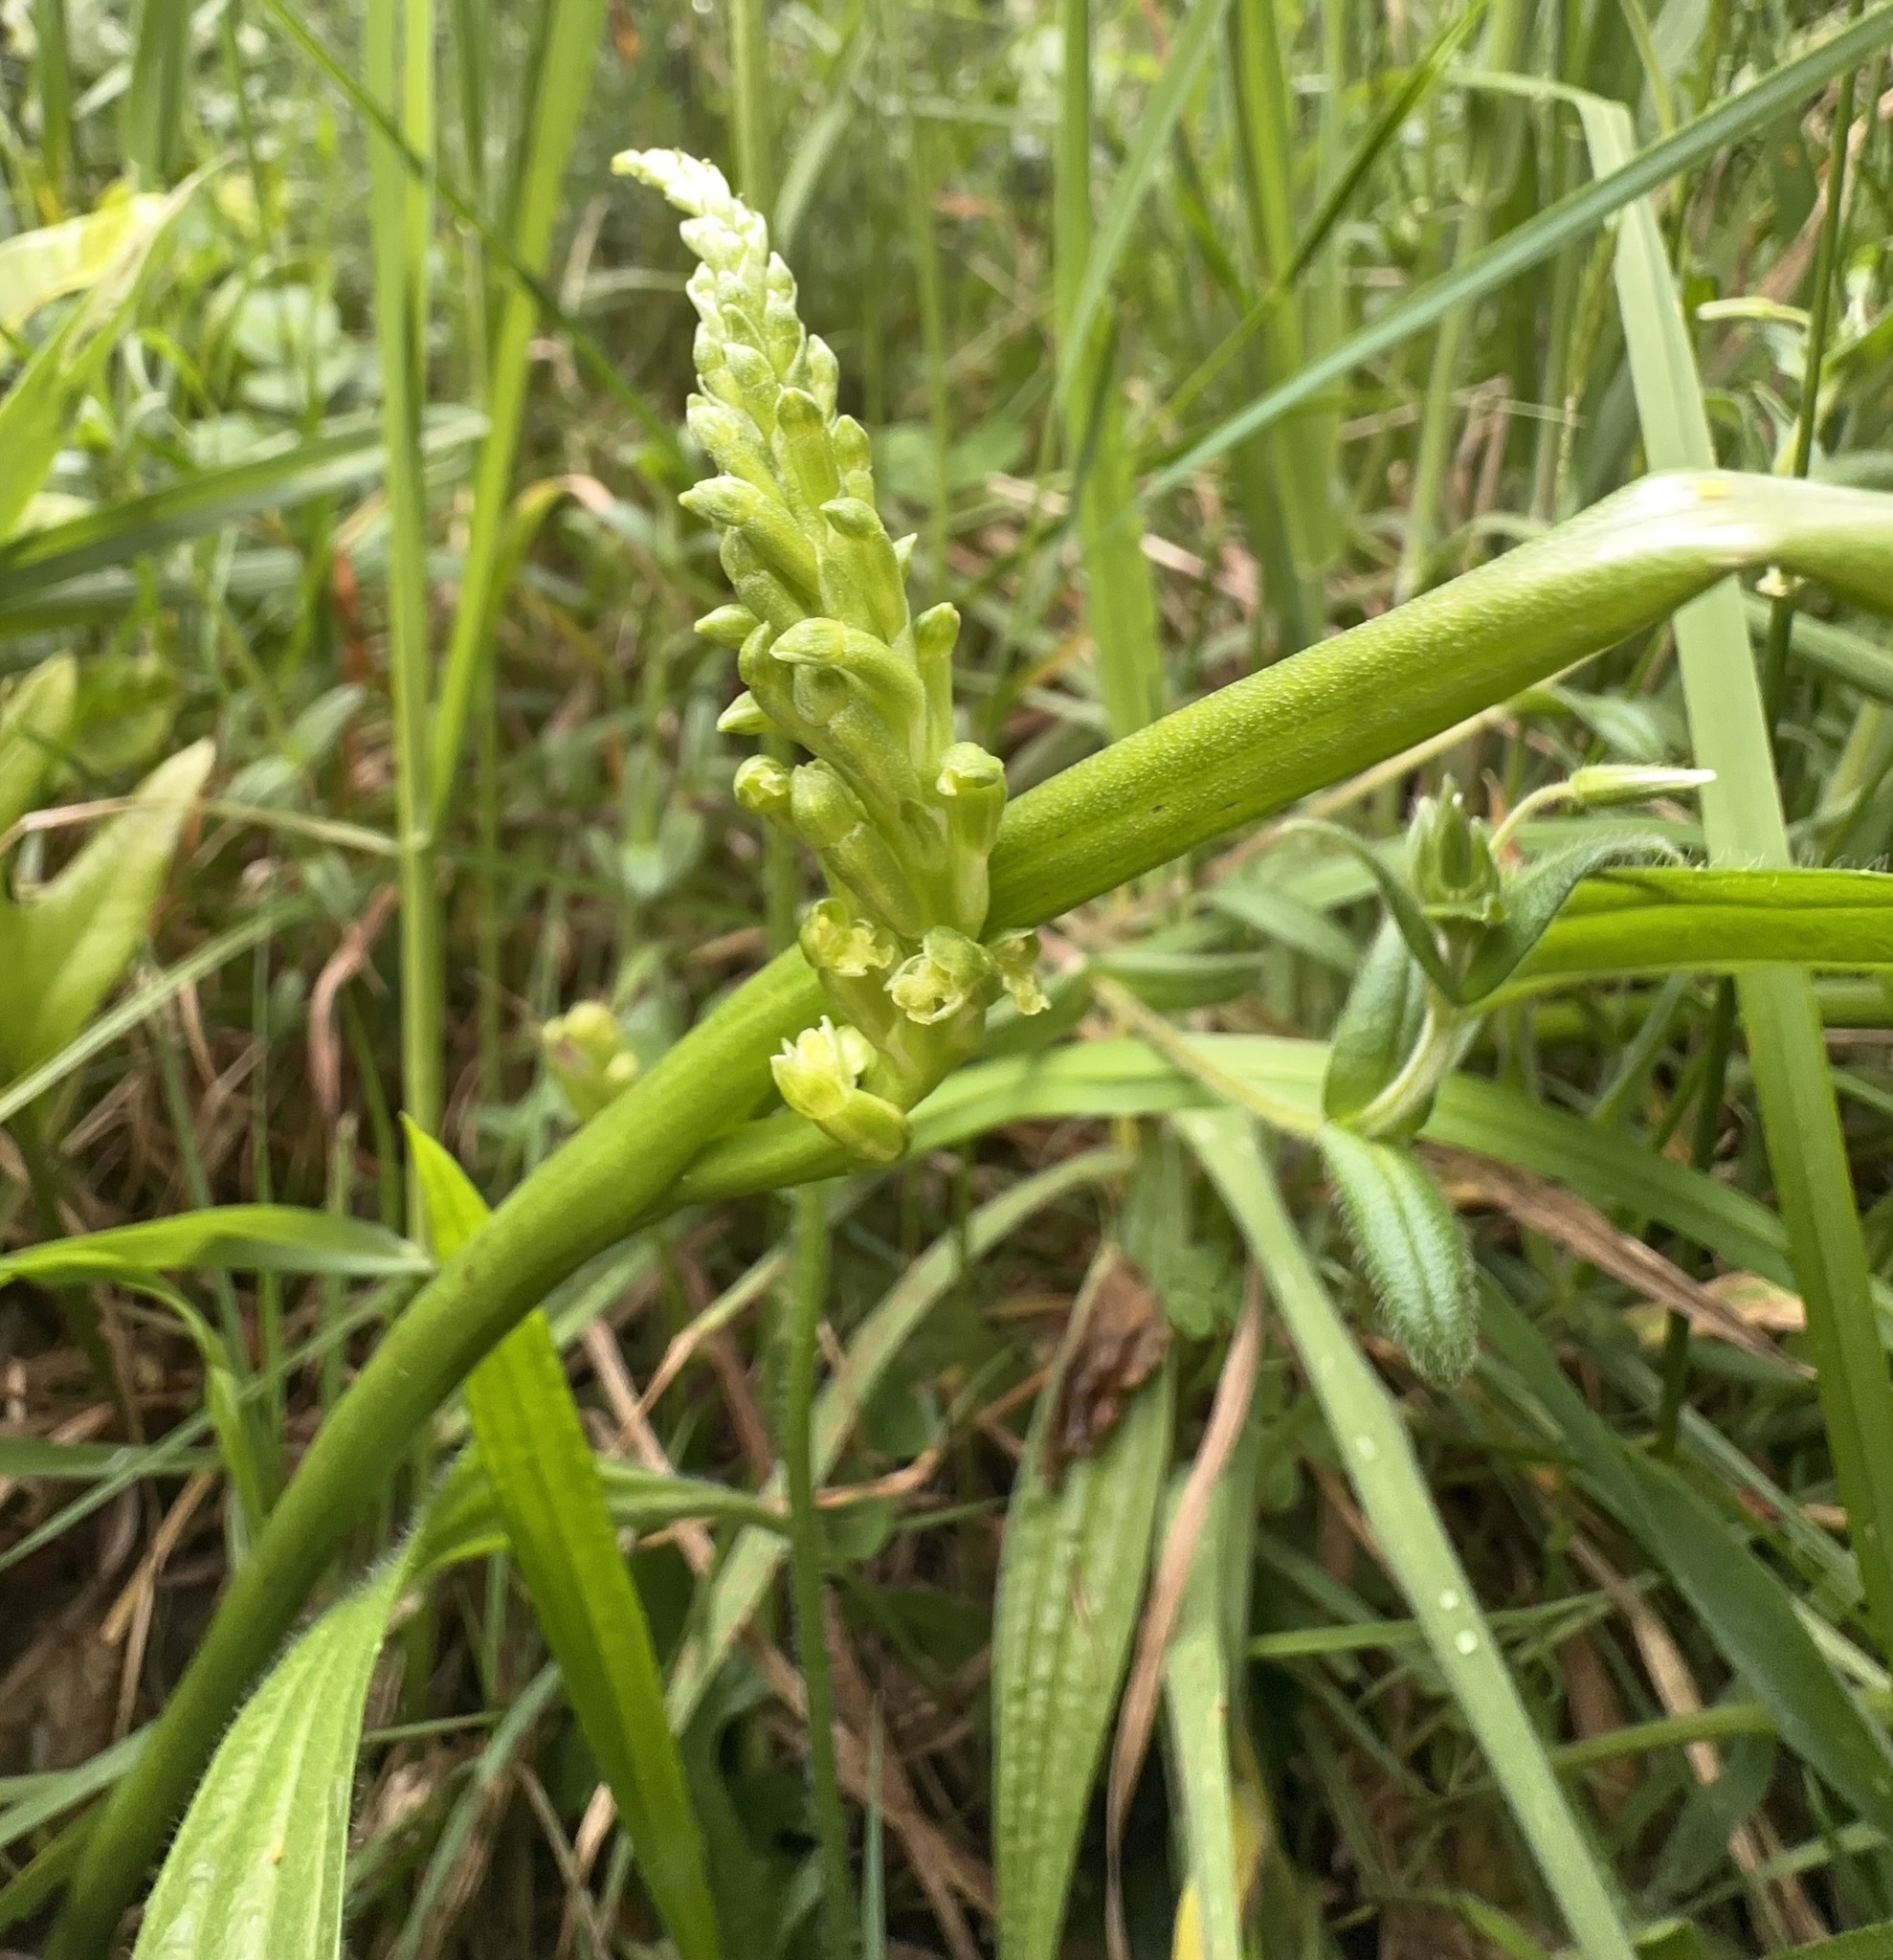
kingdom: Plantae
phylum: Tracheophyta
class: Liliopsida
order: Asparagales
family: Orchidaceae
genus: Microtis
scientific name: Microtis unifolia
